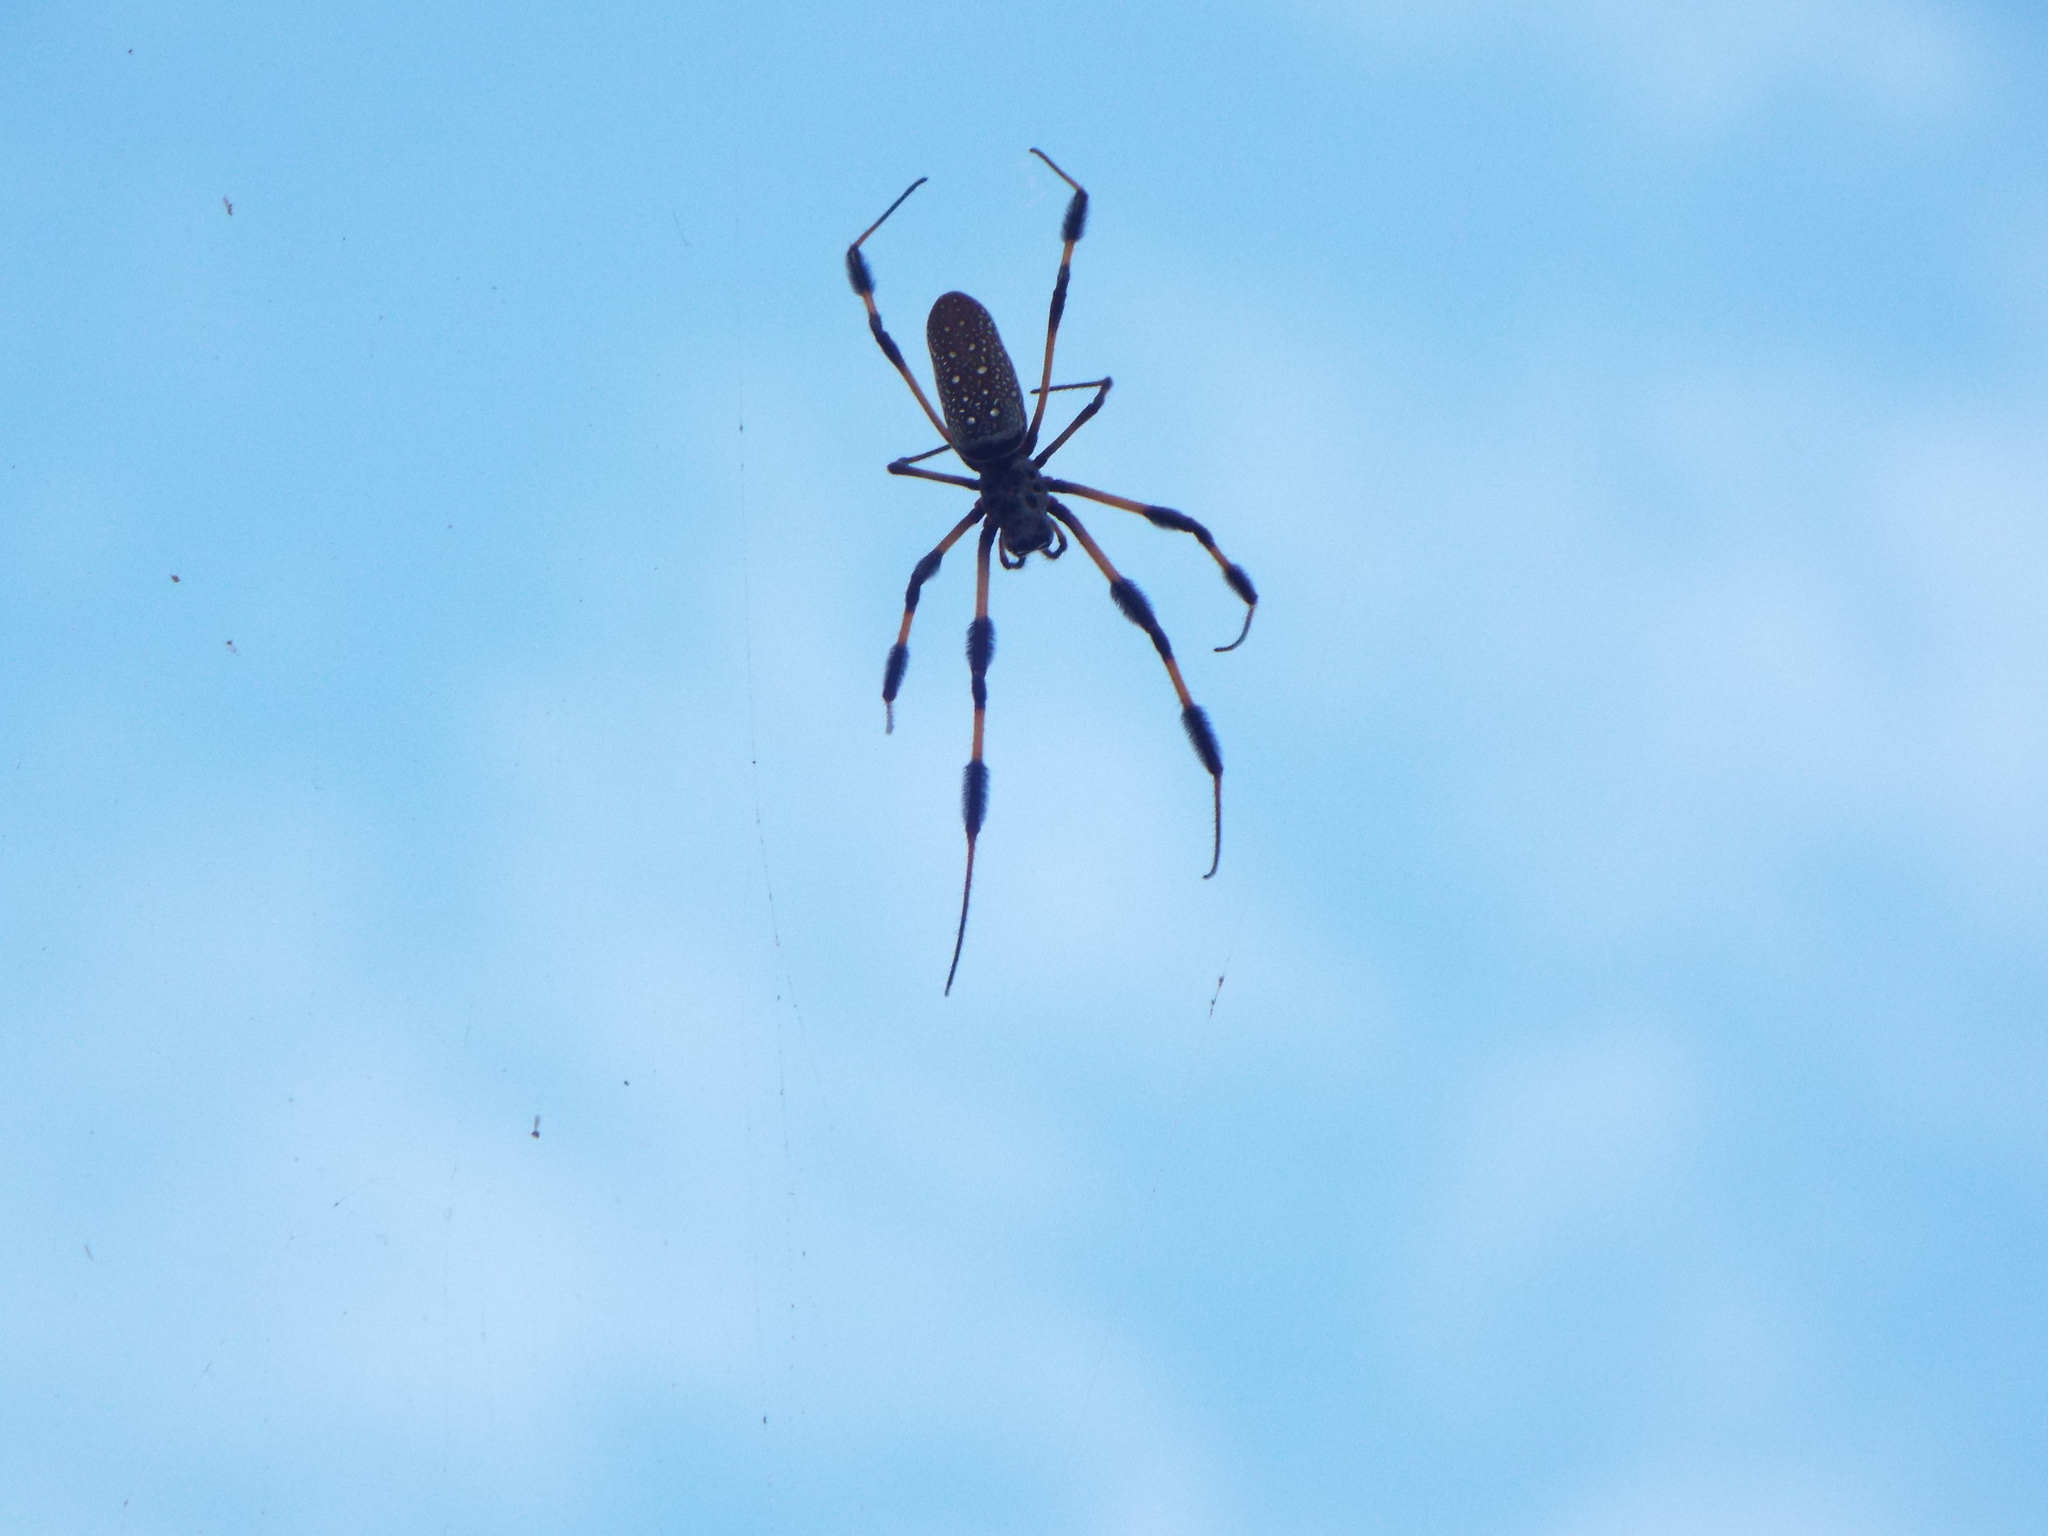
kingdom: Animalia
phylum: Arthropoda
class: Arachnida
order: Araneae
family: Araneidae
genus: Trichonephila
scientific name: Trichonephila clavipes
